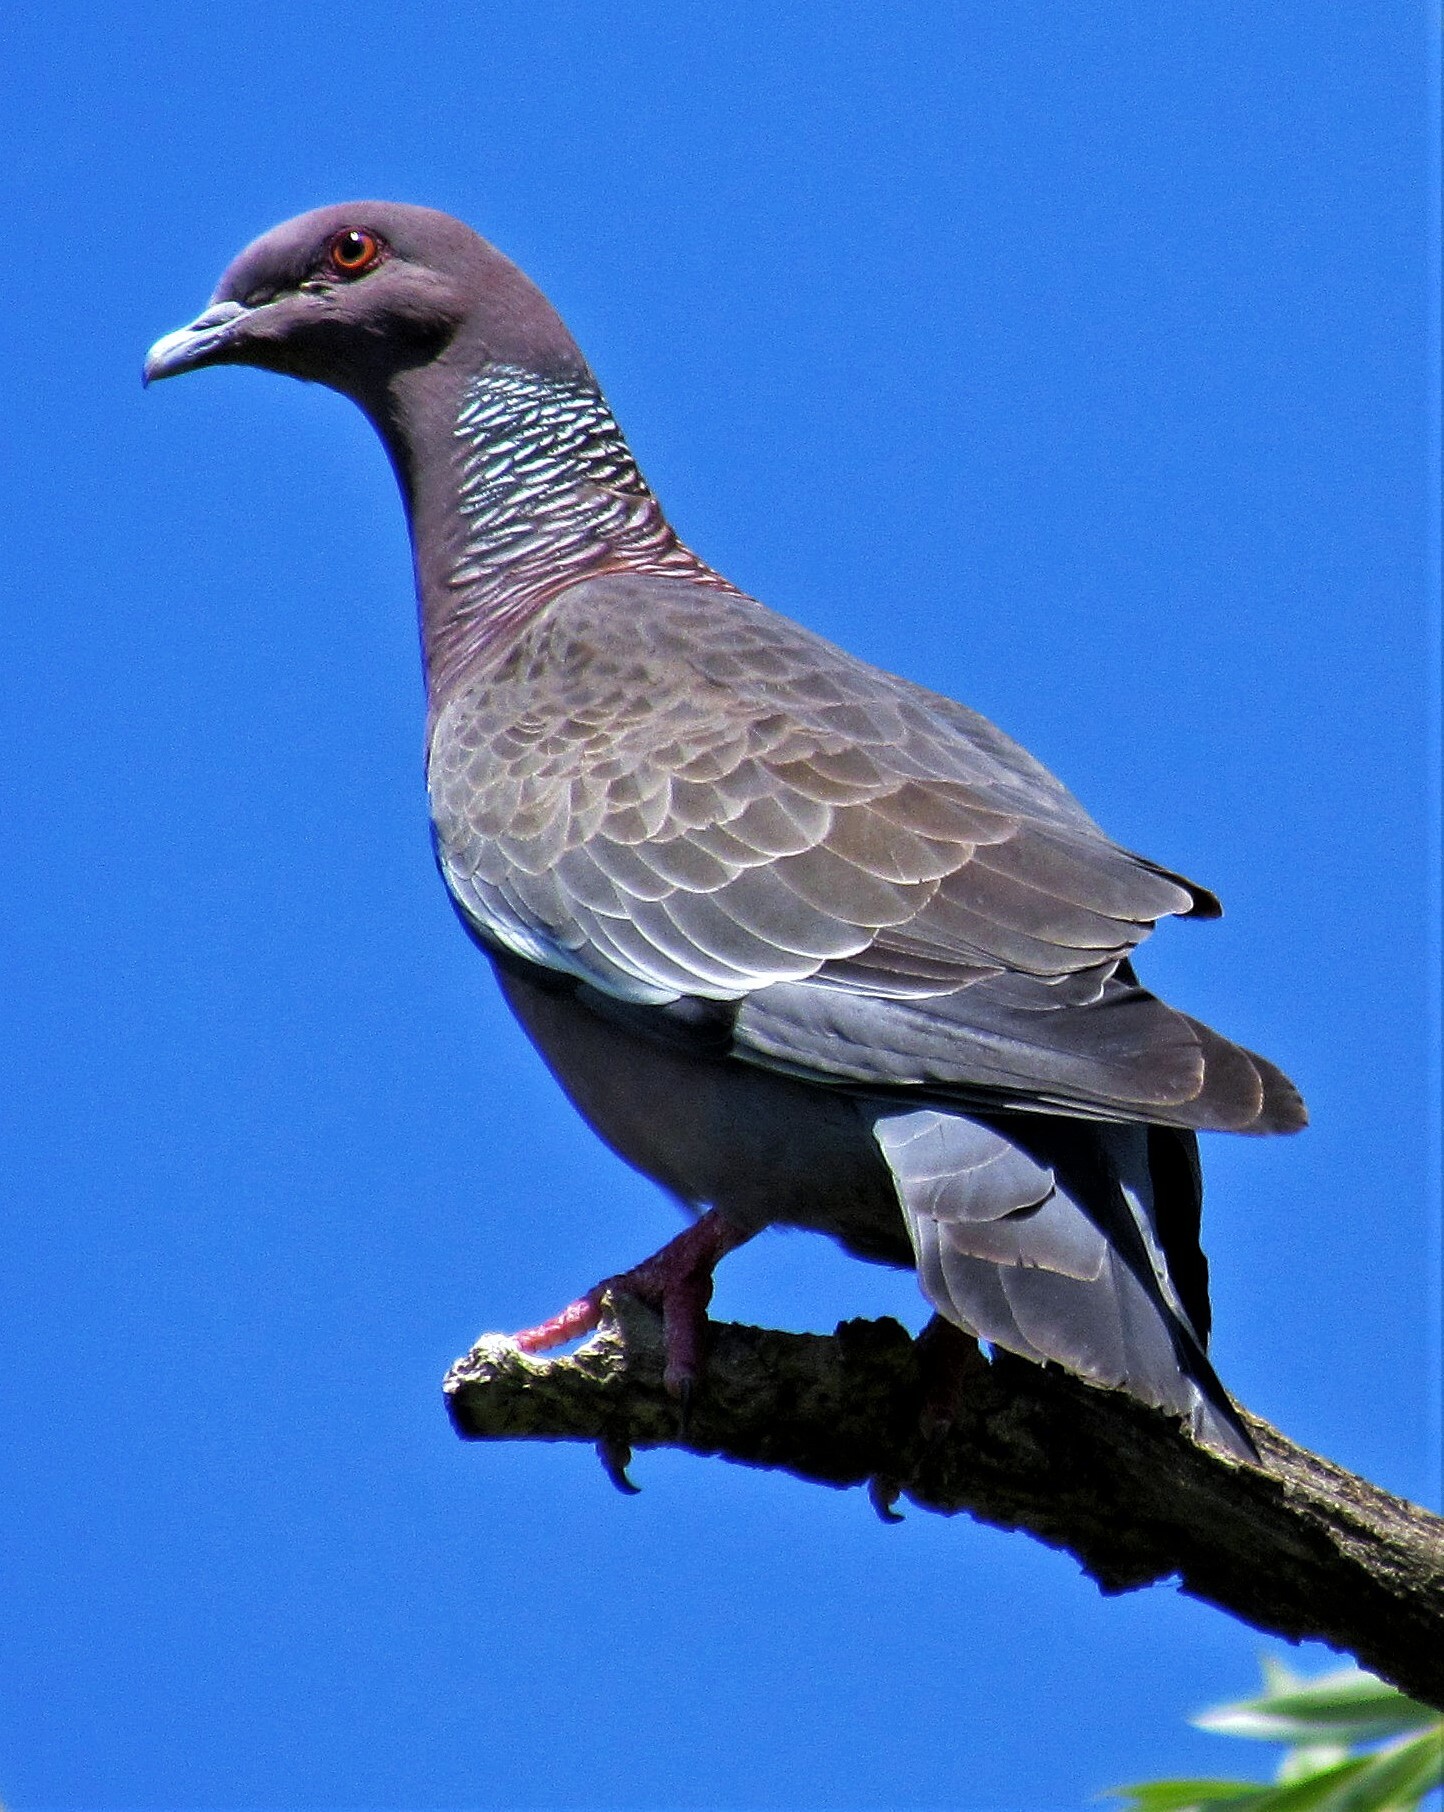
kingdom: Animalia
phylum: Chordata
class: Aves
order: Columbiformes
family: Columbidae
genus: Patagioenas
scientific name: Patagioenas picazuro
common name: Picazuro pigeon
